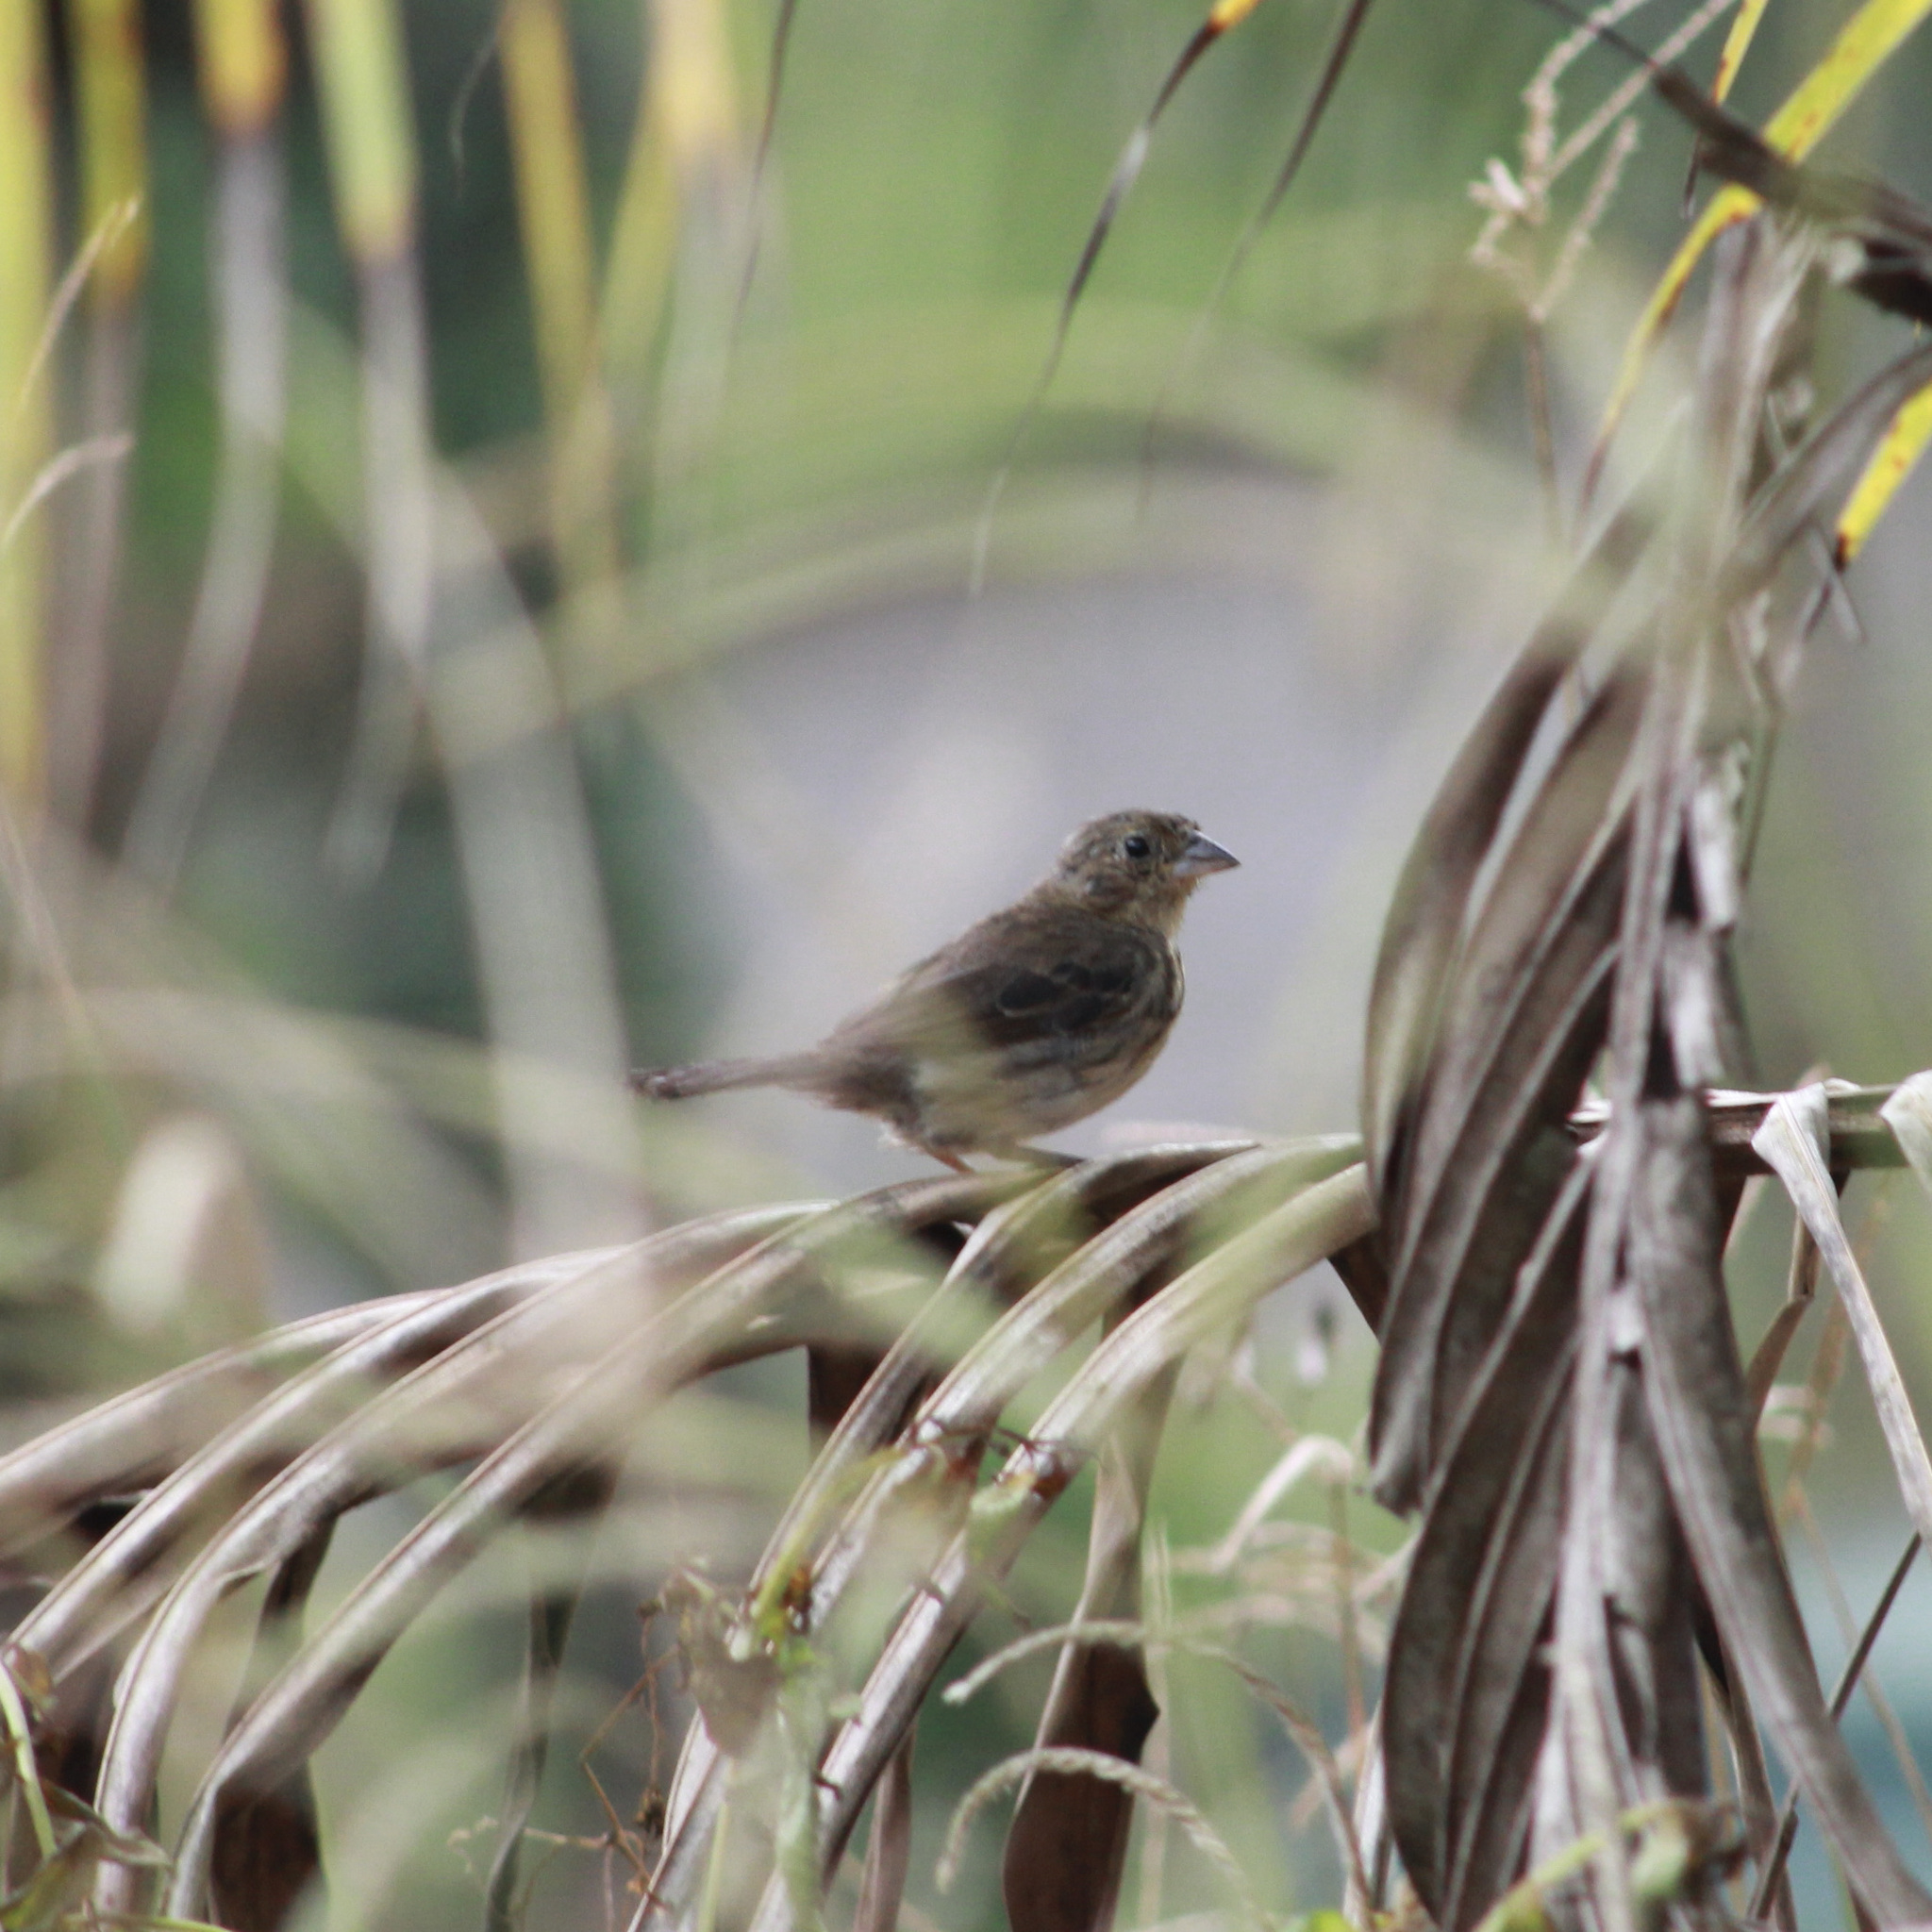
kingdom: Animalia
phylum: Chordata
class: Aves
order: Passeriformes
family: Thraupidae
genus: Volatinia
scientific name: Volatinia jacarina
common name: Blue-black grassquit
